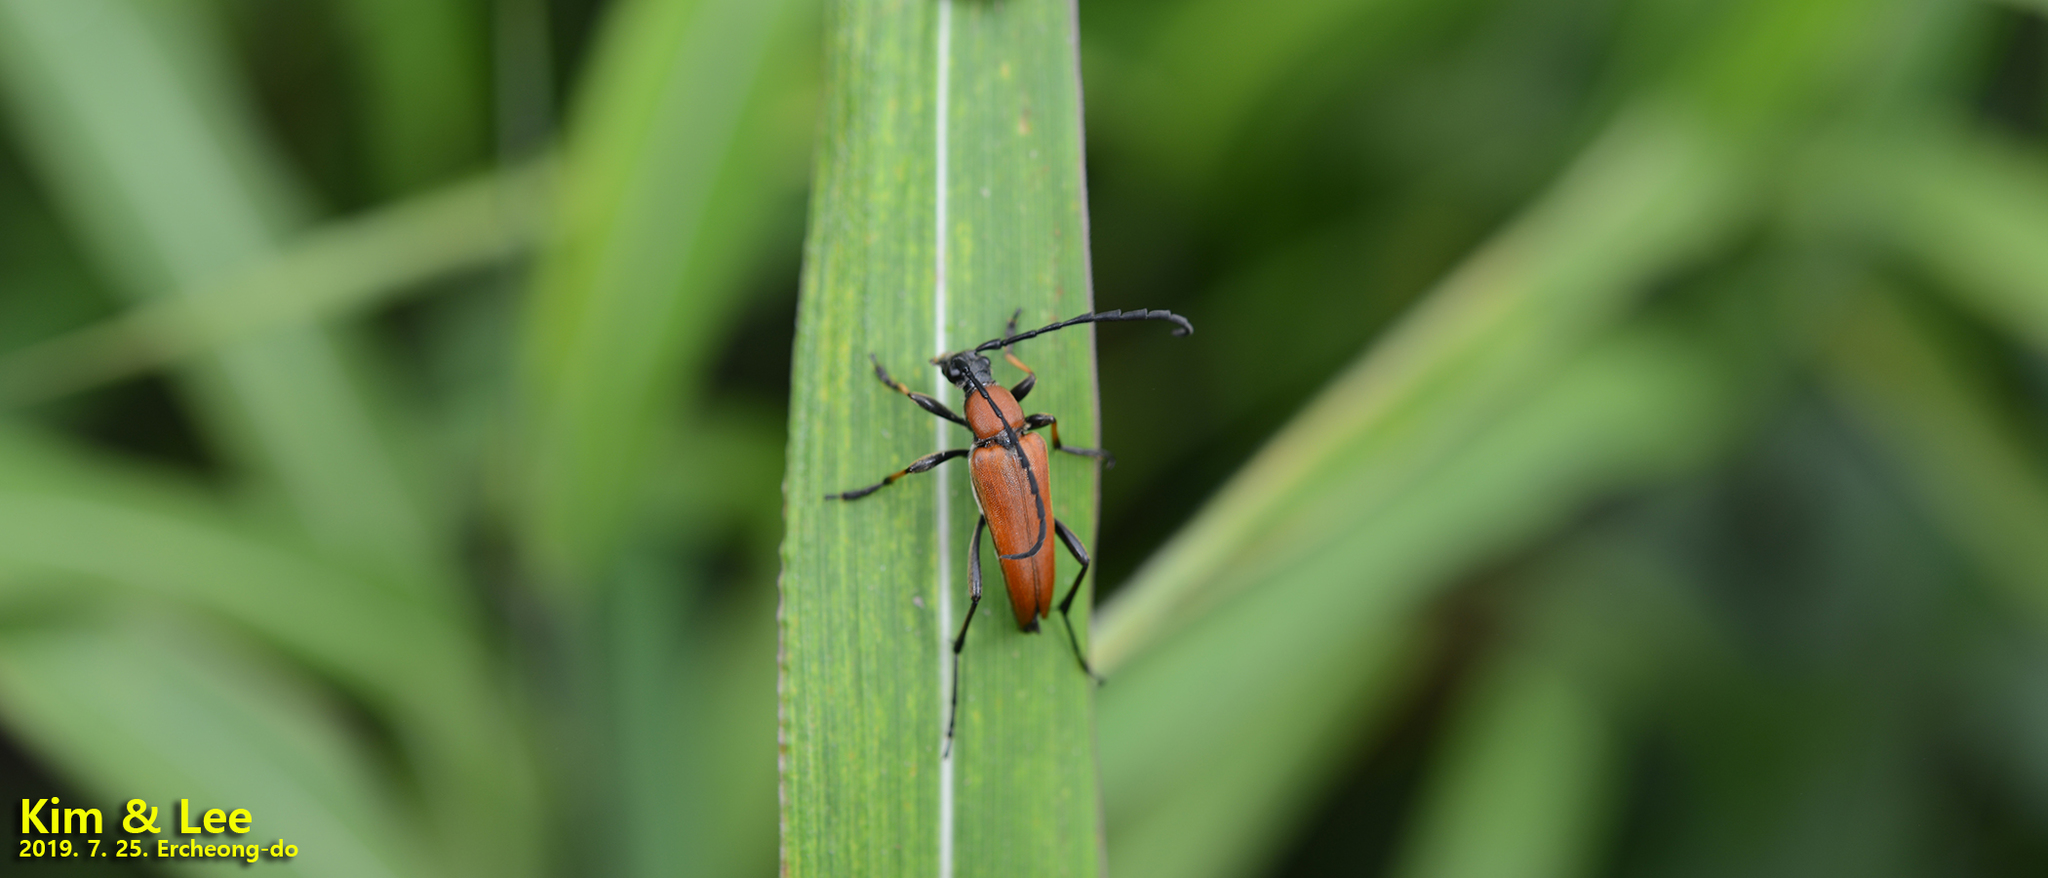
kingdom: Animalia
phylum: Arthropoda
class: Insecta
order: Coleoptera
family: Cerambycidae
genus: Stictoleptura
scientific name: Stictoleptura dichroa
